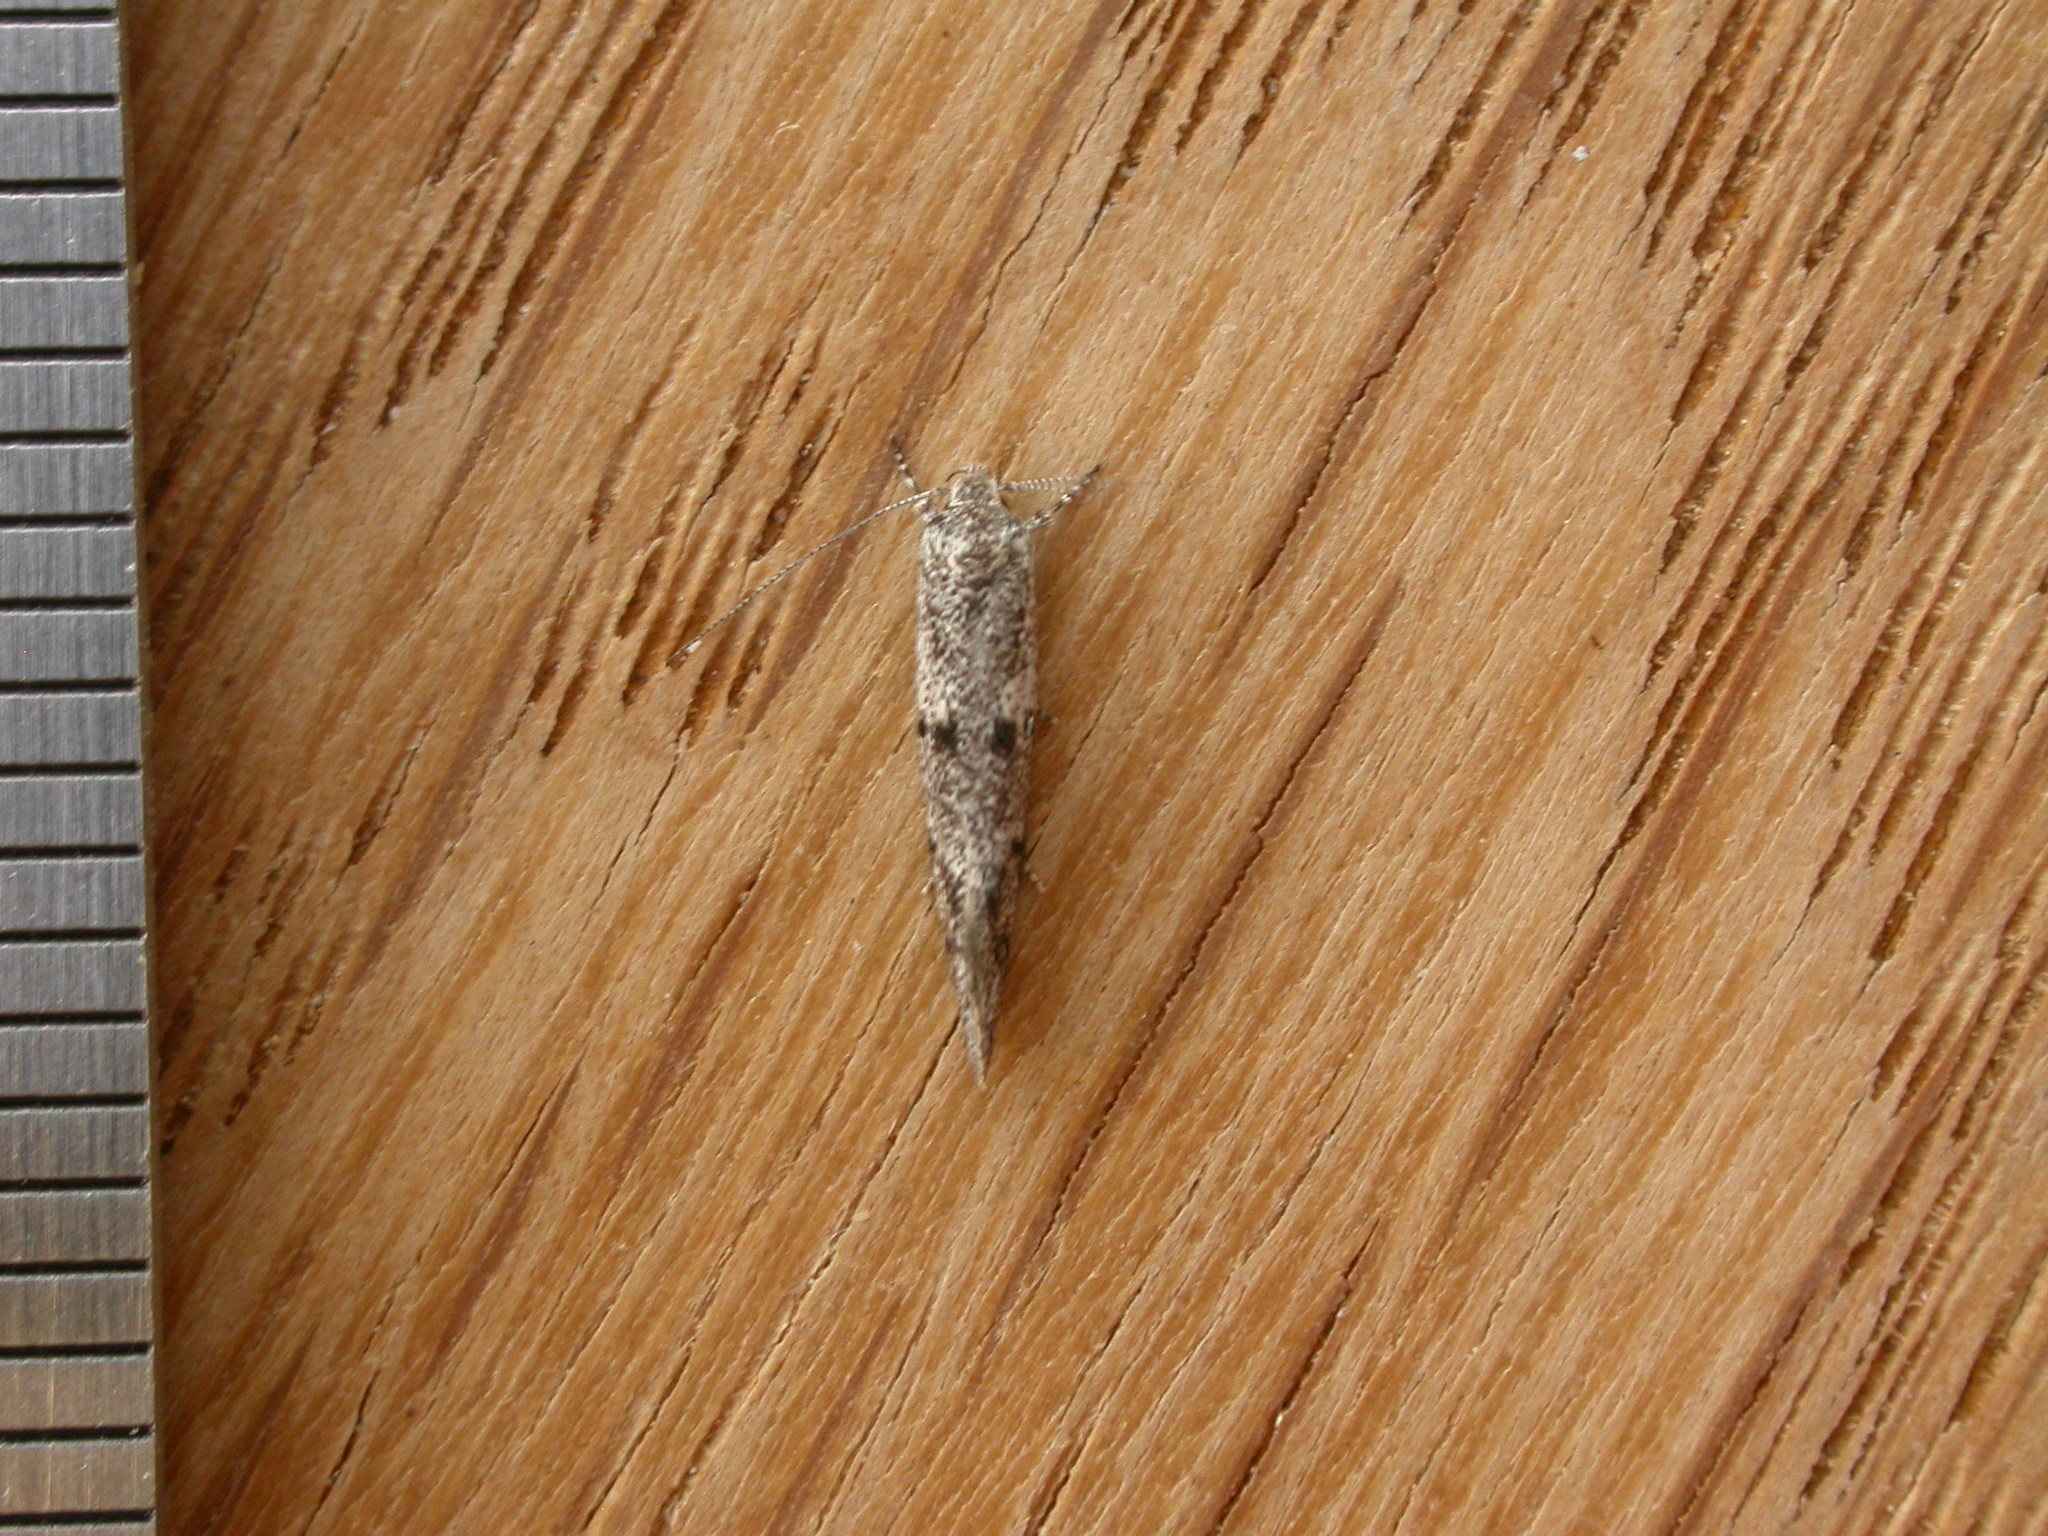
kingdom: Animalia
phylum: Arthropoda
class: Insecta
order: Lepidoptera
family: Oecophoridae
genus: Heterozyga
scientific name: Heterozyga coppatias
